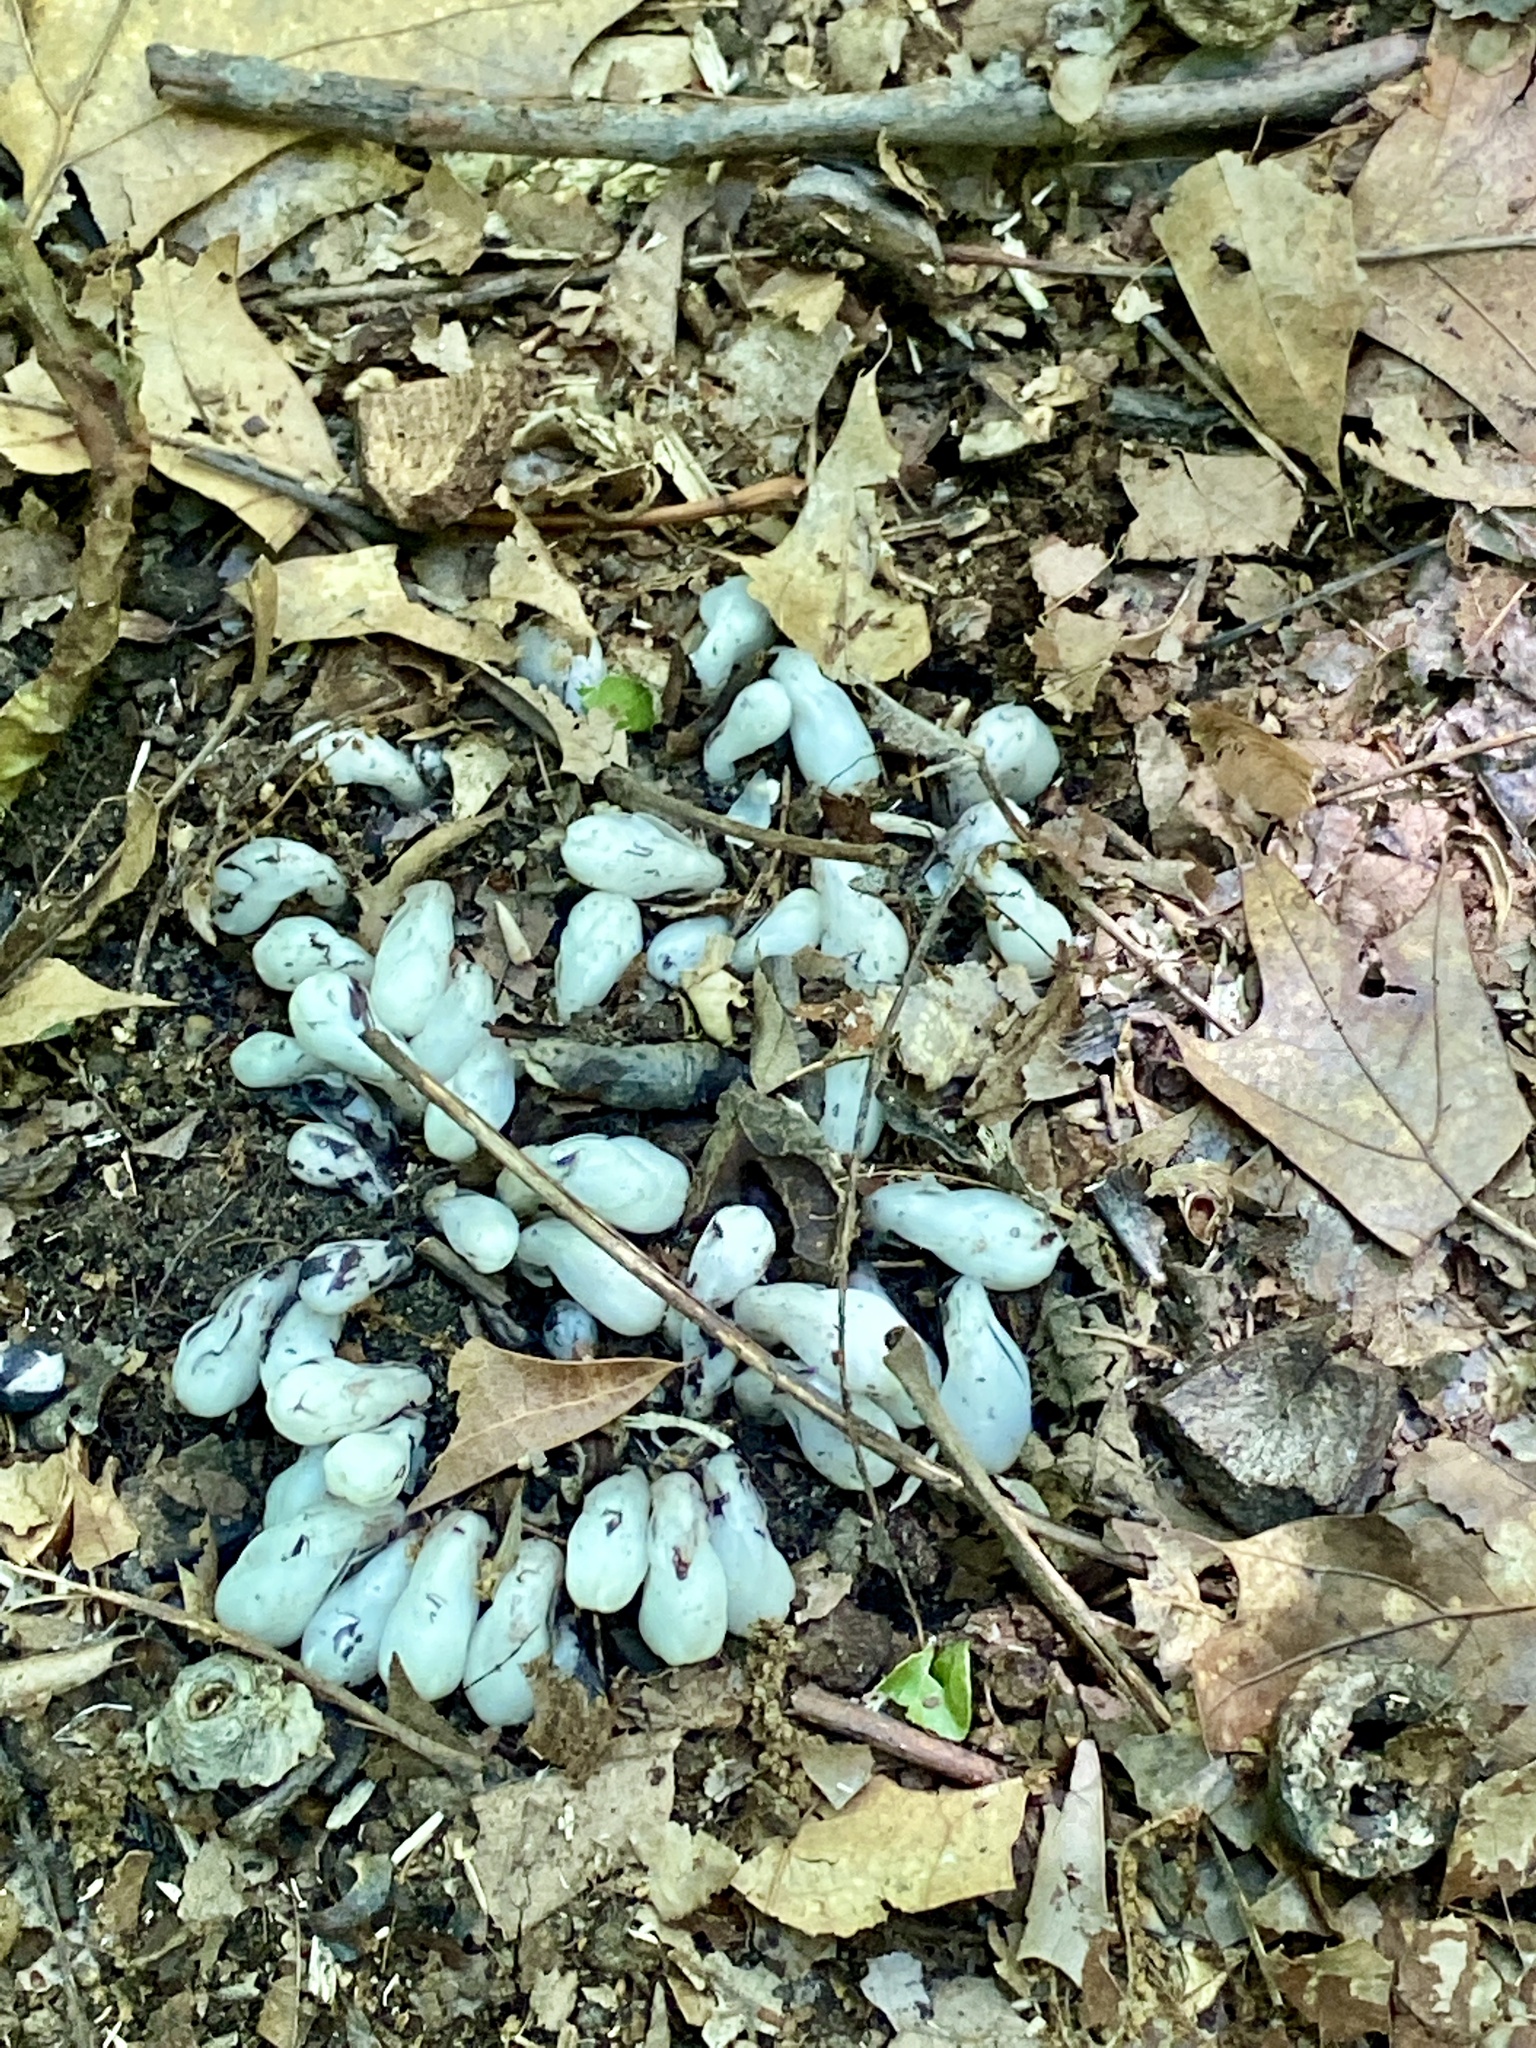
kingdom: Plantae
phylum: Tracheophyta
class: Magnoliopsida
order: Ericales
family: Ericaceae
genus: Monotropa
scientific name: Monotropa uniflora
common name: Convulsion root
